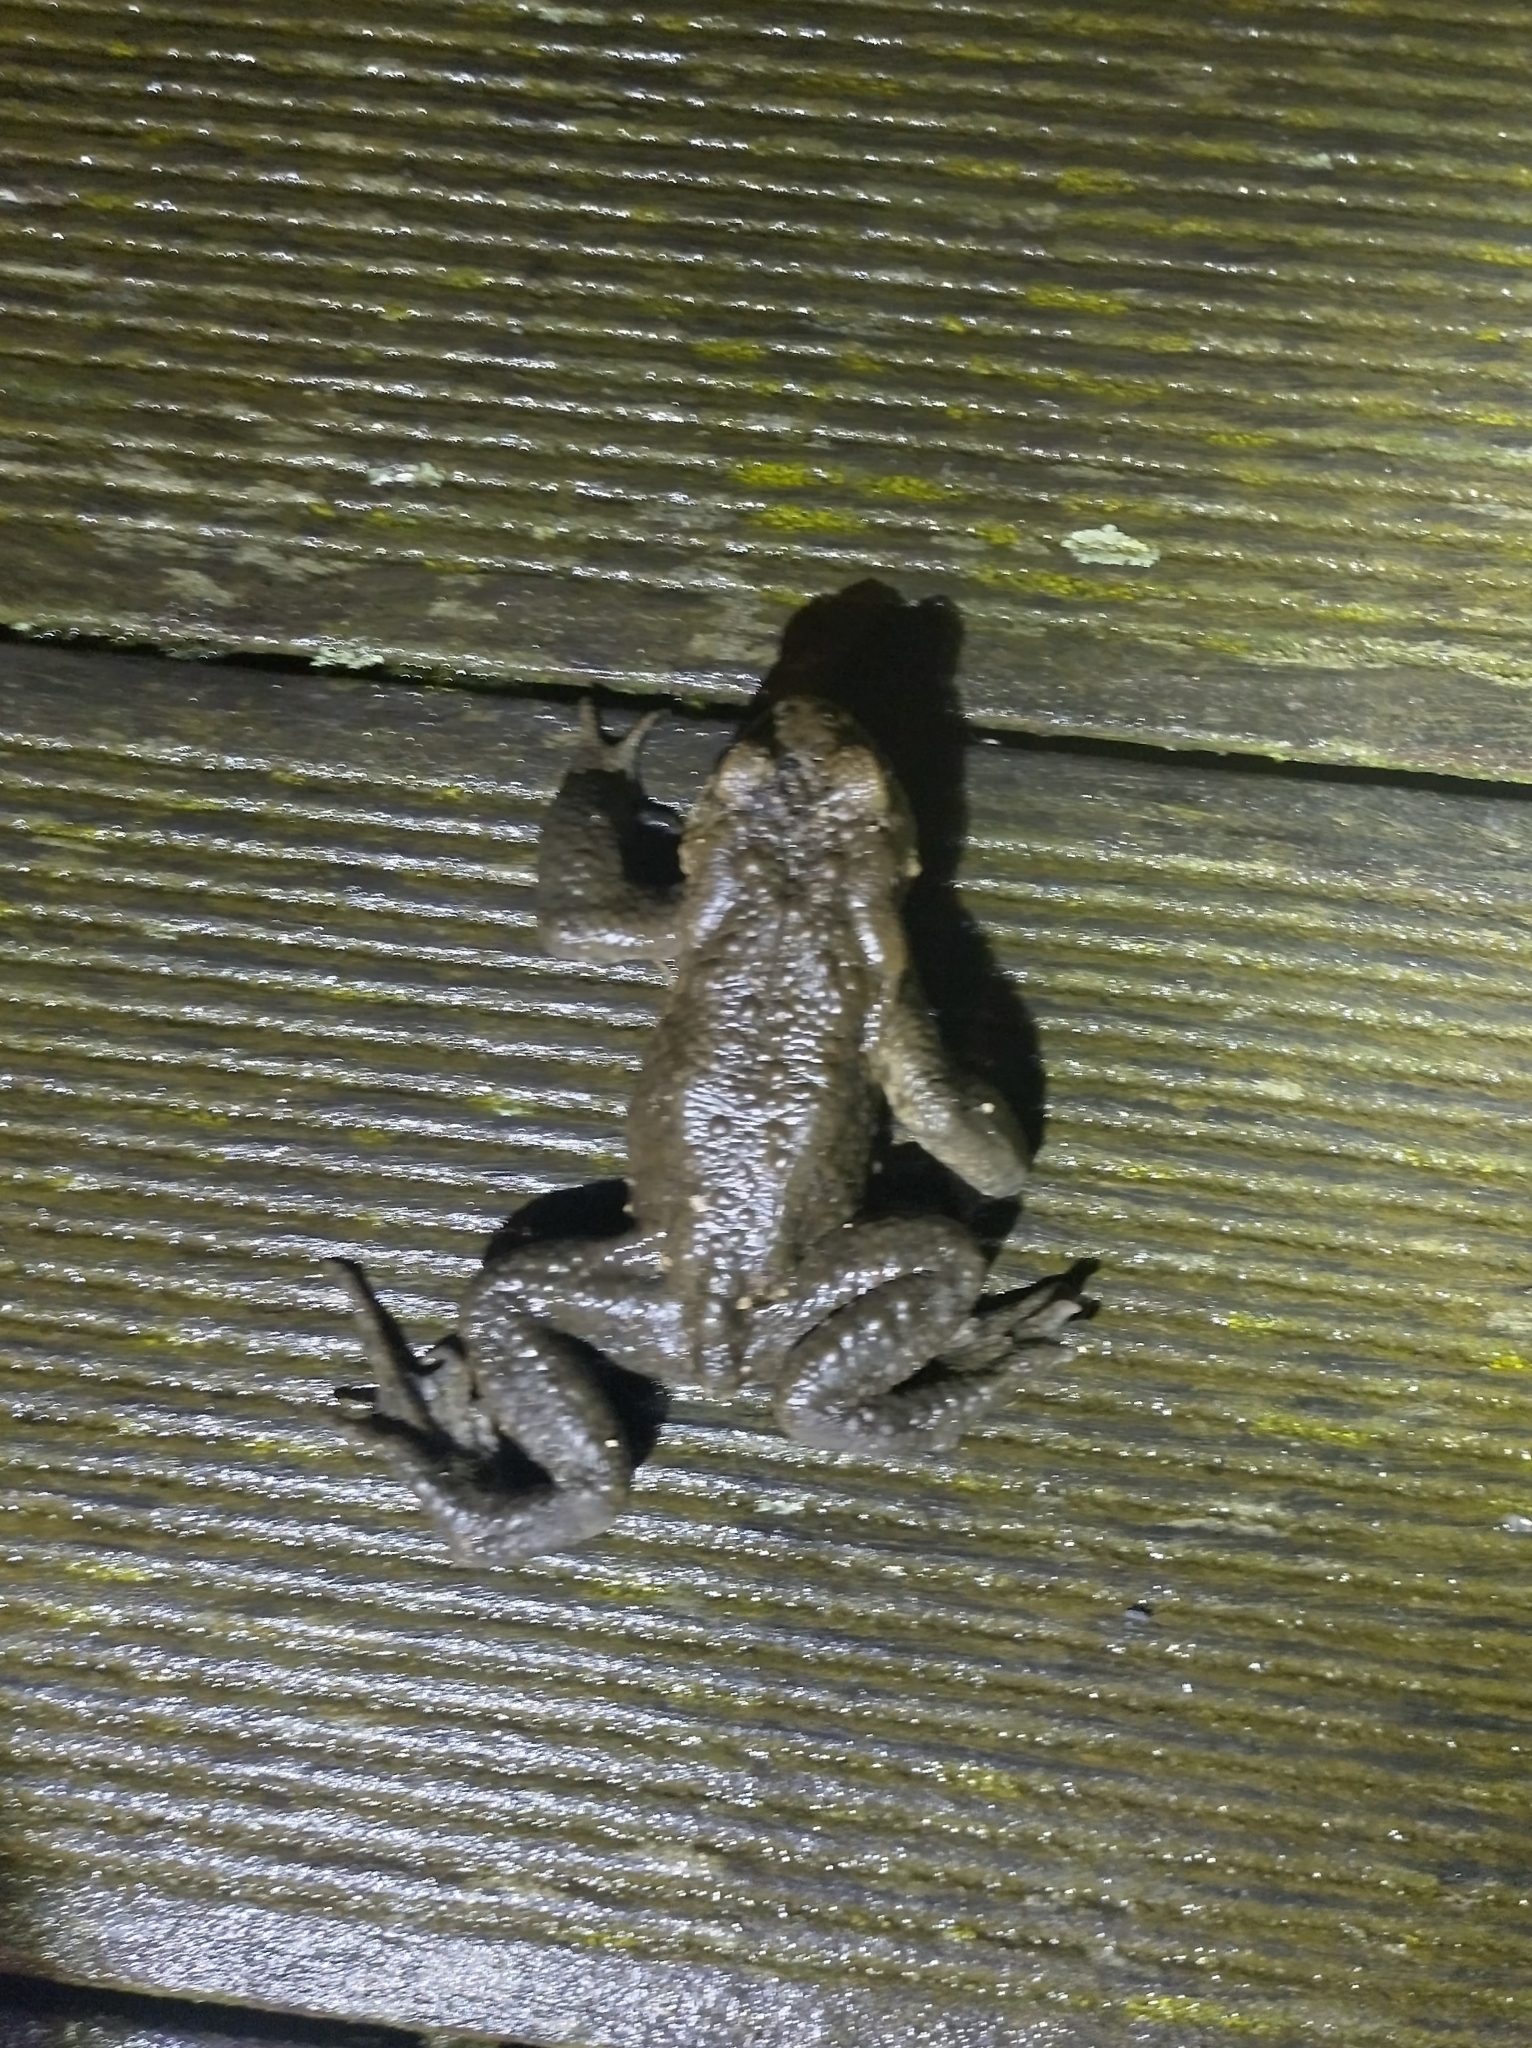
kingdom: Animalia
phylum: Chordata
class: Amphibia
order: Anura
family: Bufonidae
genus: Bufo
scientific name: Bufo bufo
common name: Common toad
